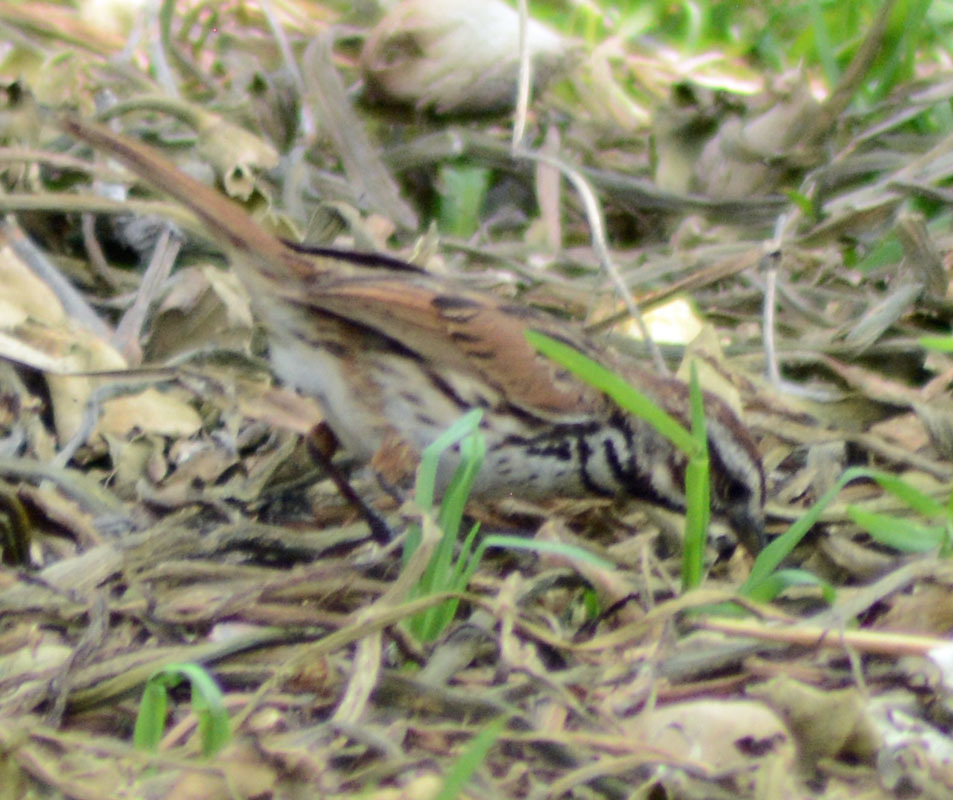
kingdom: Animalia
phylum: Chordata
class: Aves
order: Passeriformes
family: Passerellidae
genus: Melospiza
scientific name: Melospiza melodia
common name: Song sparrow
